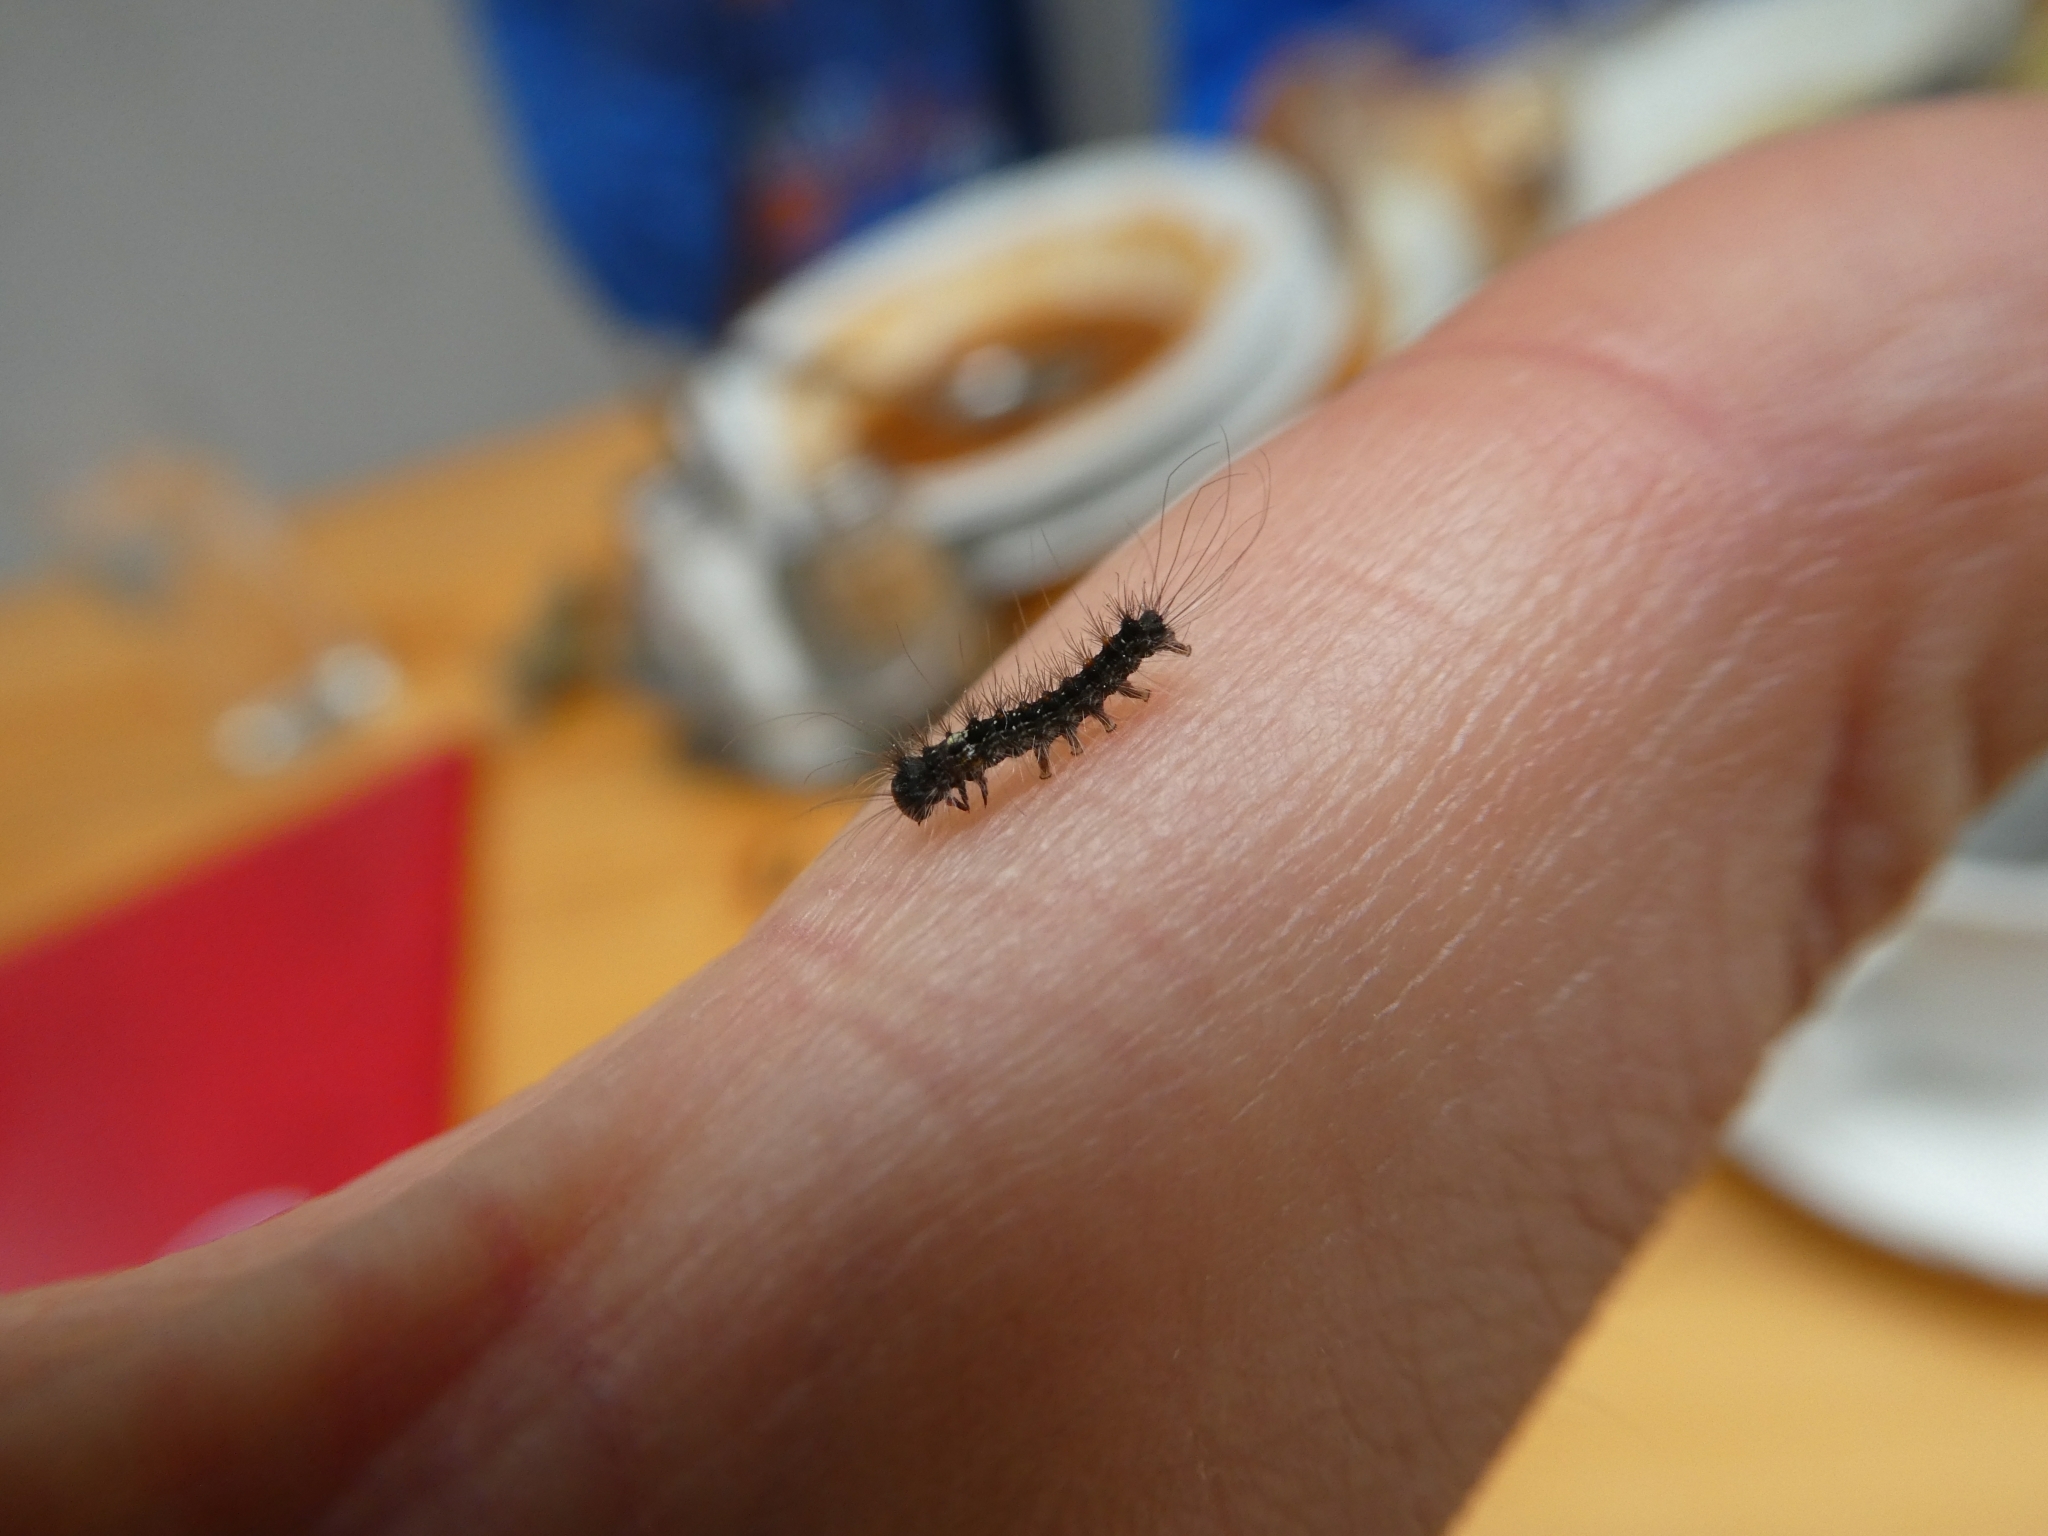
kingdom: Animalia
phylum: Arthropoda
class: Insecta
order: Lepidoptera
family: Erebidae
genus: Lymantria
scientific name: Lymantria dispar
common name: Gypsy moth
